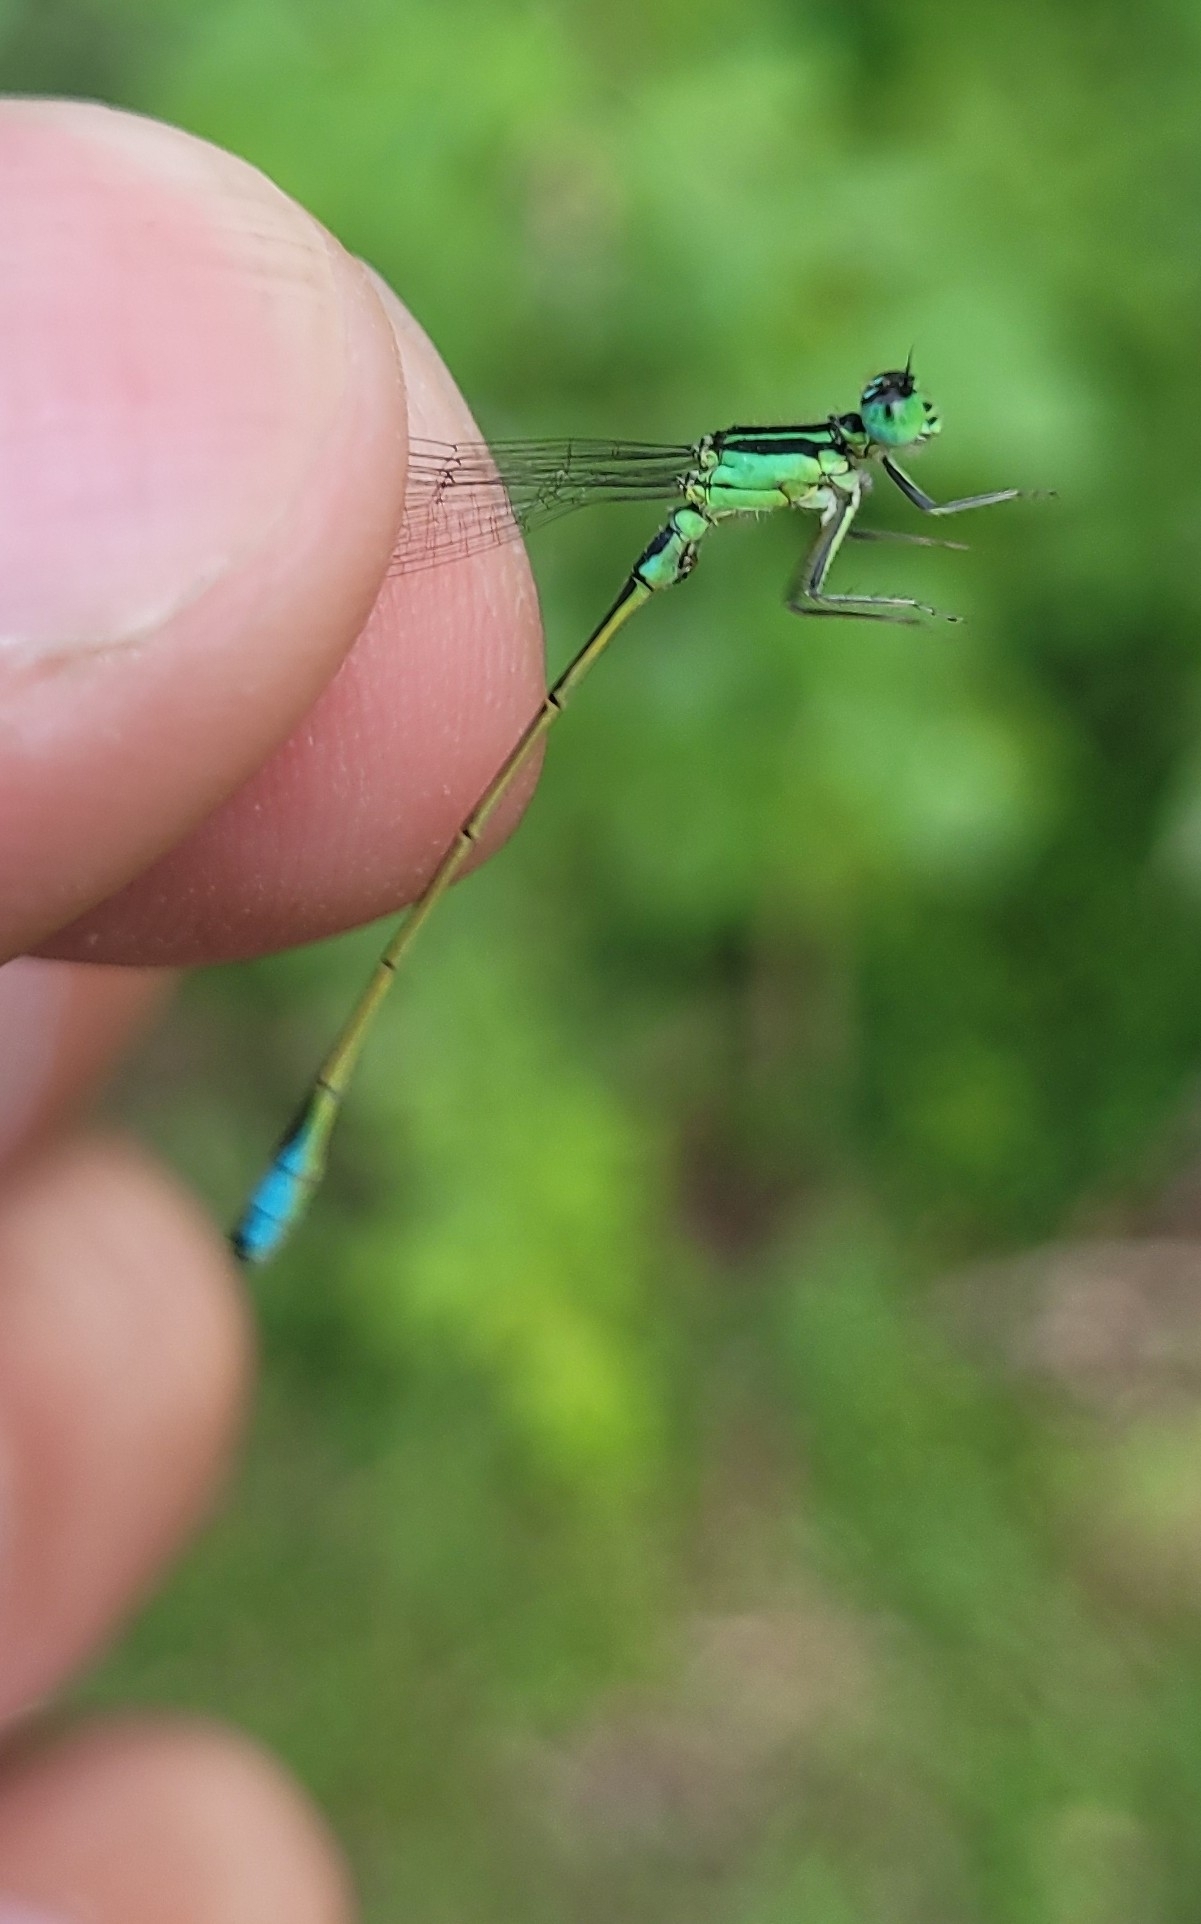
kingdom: Animalia
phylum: Arthropoda
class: Insecta
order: Odonata
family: Coenagrionidae
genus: Ischnura
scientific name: Ischnura elegans
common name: Blue-tailed damselfly
